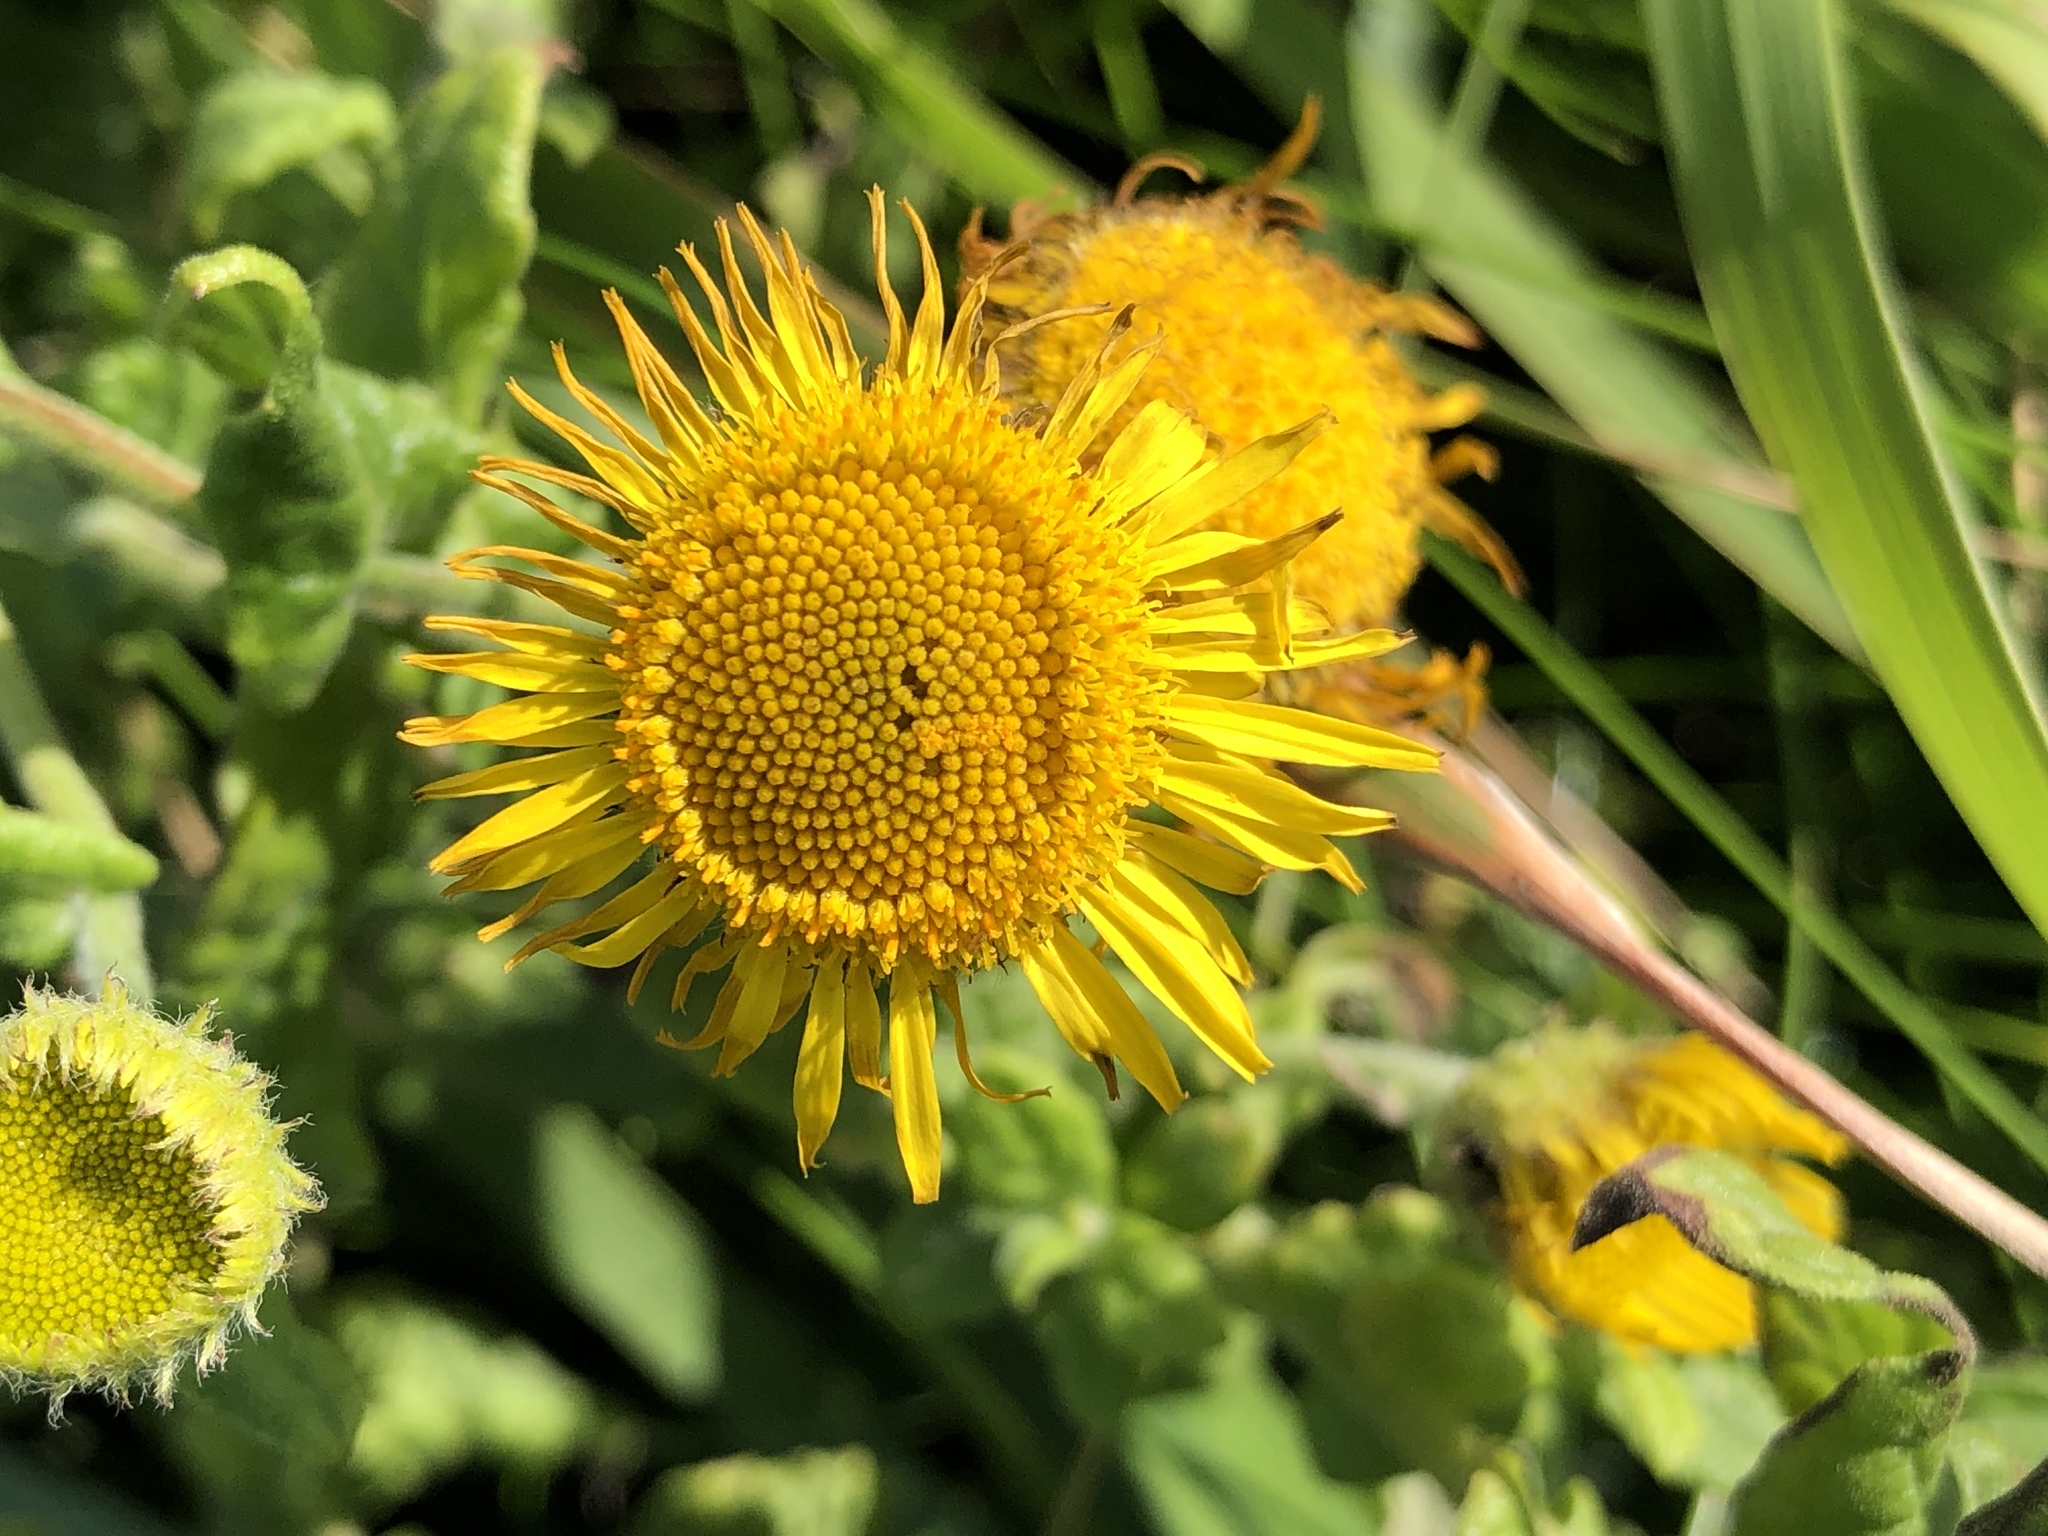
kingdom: Plantae
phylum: Tracheophyta
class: Magnoliopsida
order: Asterales
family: Asteraceae
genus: Pulicaria
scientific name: Pulicaria dysenterica
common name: Common fleabane
